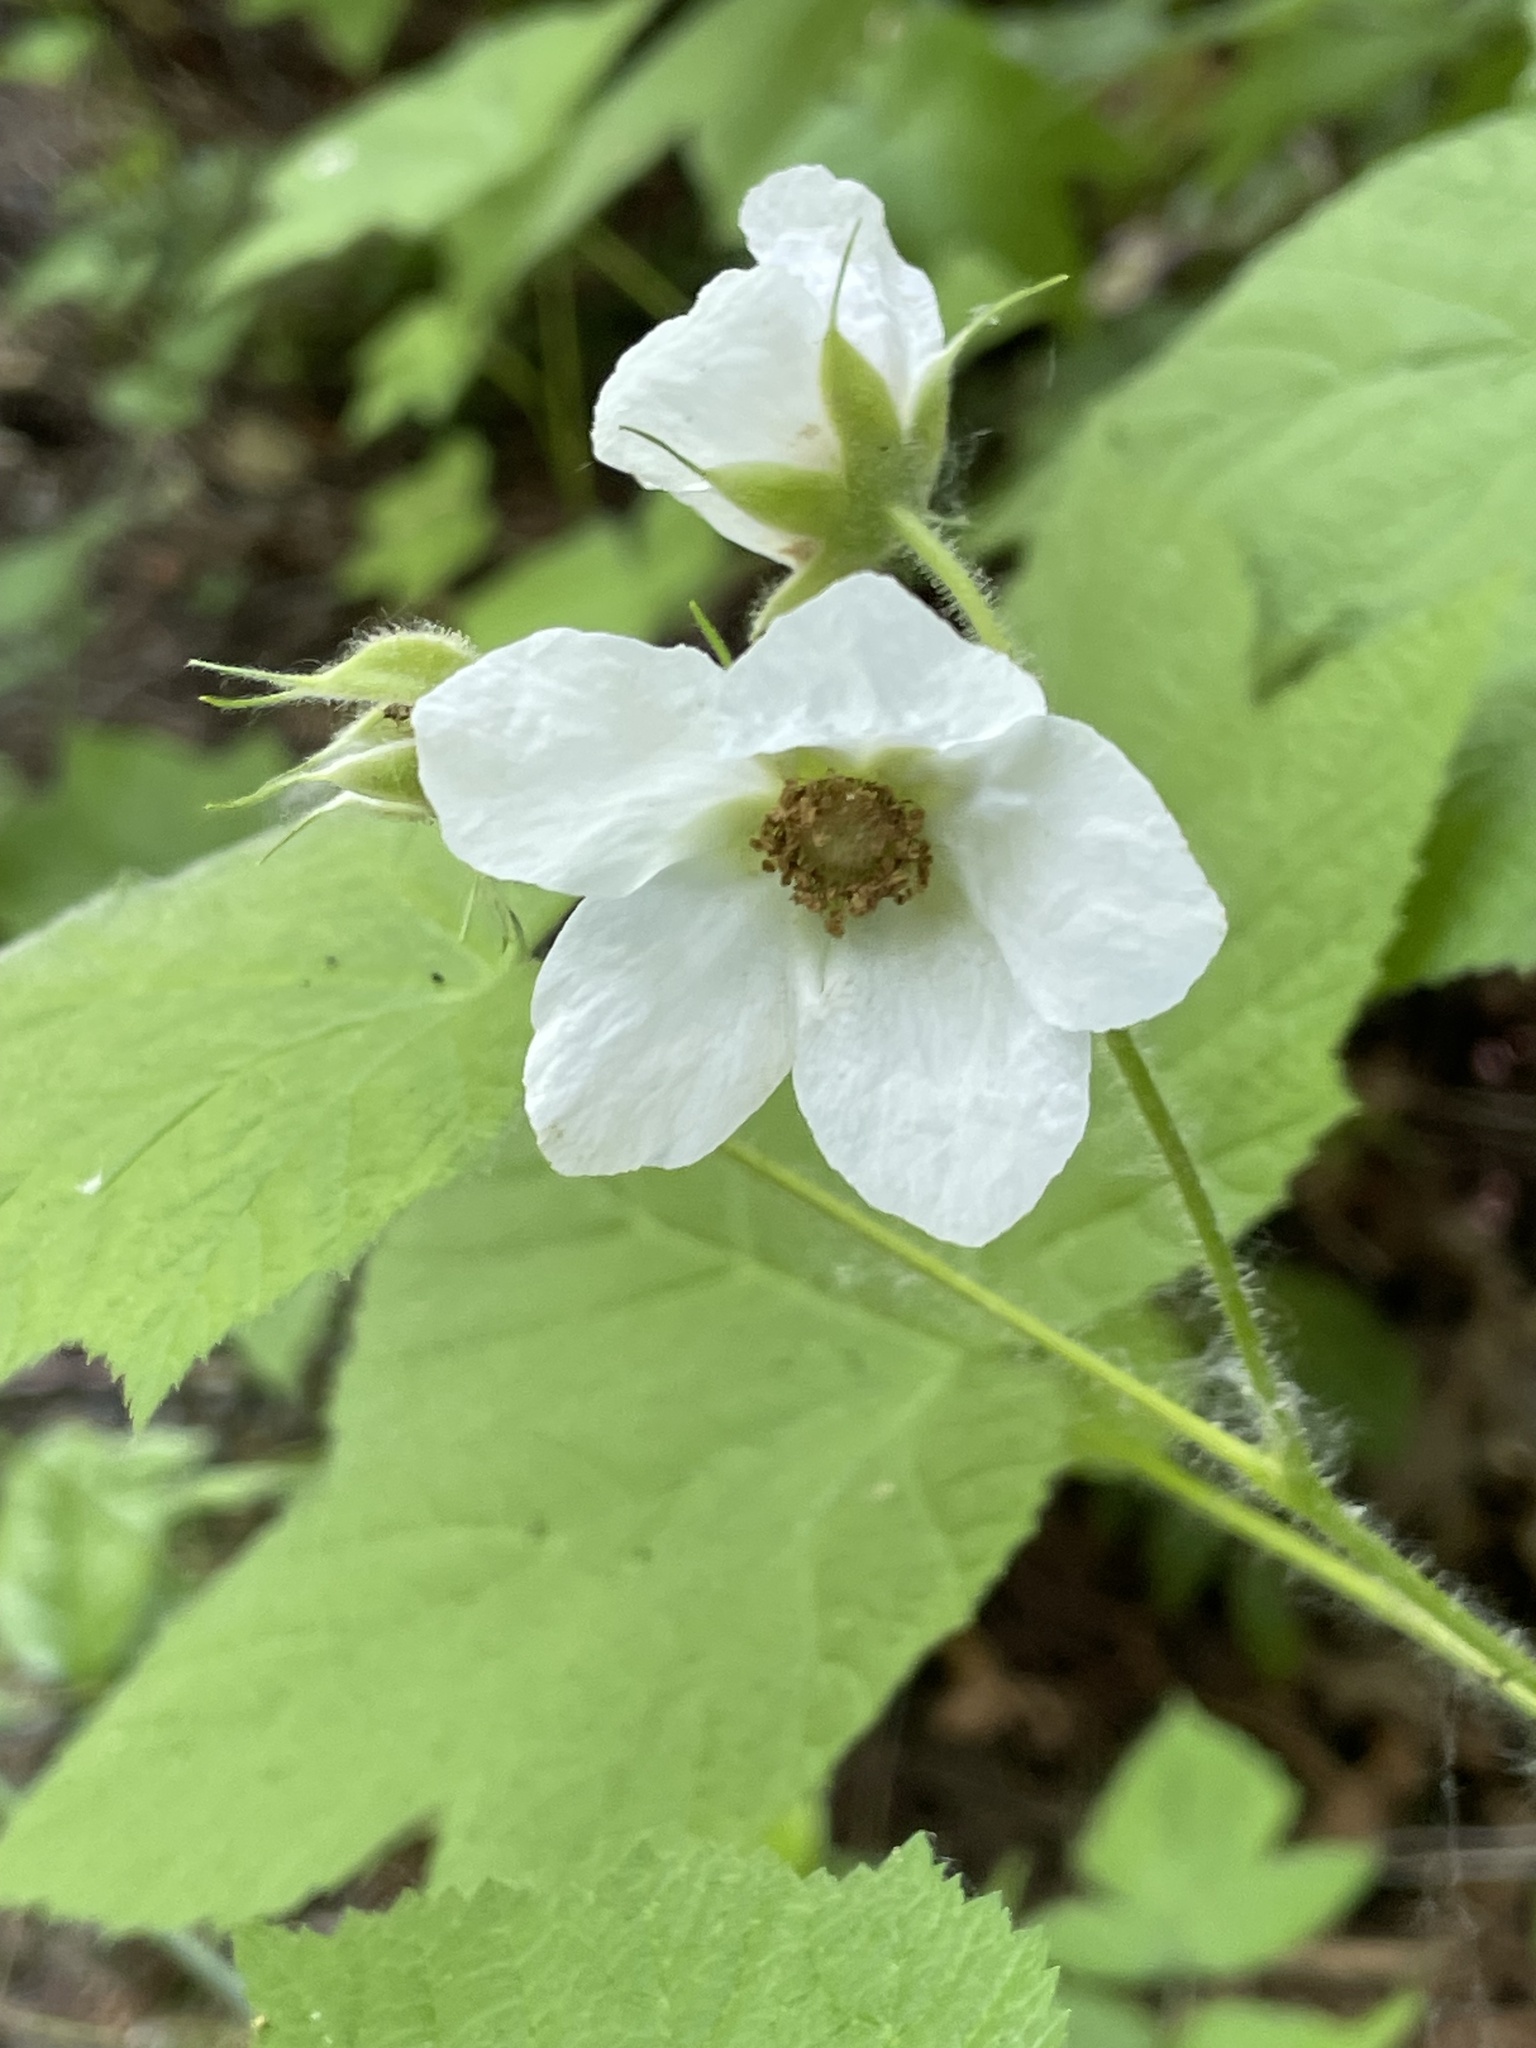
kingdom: Plantae
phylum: Tracheophyta
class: Magnoliopsida
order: Rosales
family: Rosaceae
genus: Rubus
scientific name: Rubus parviflorus
